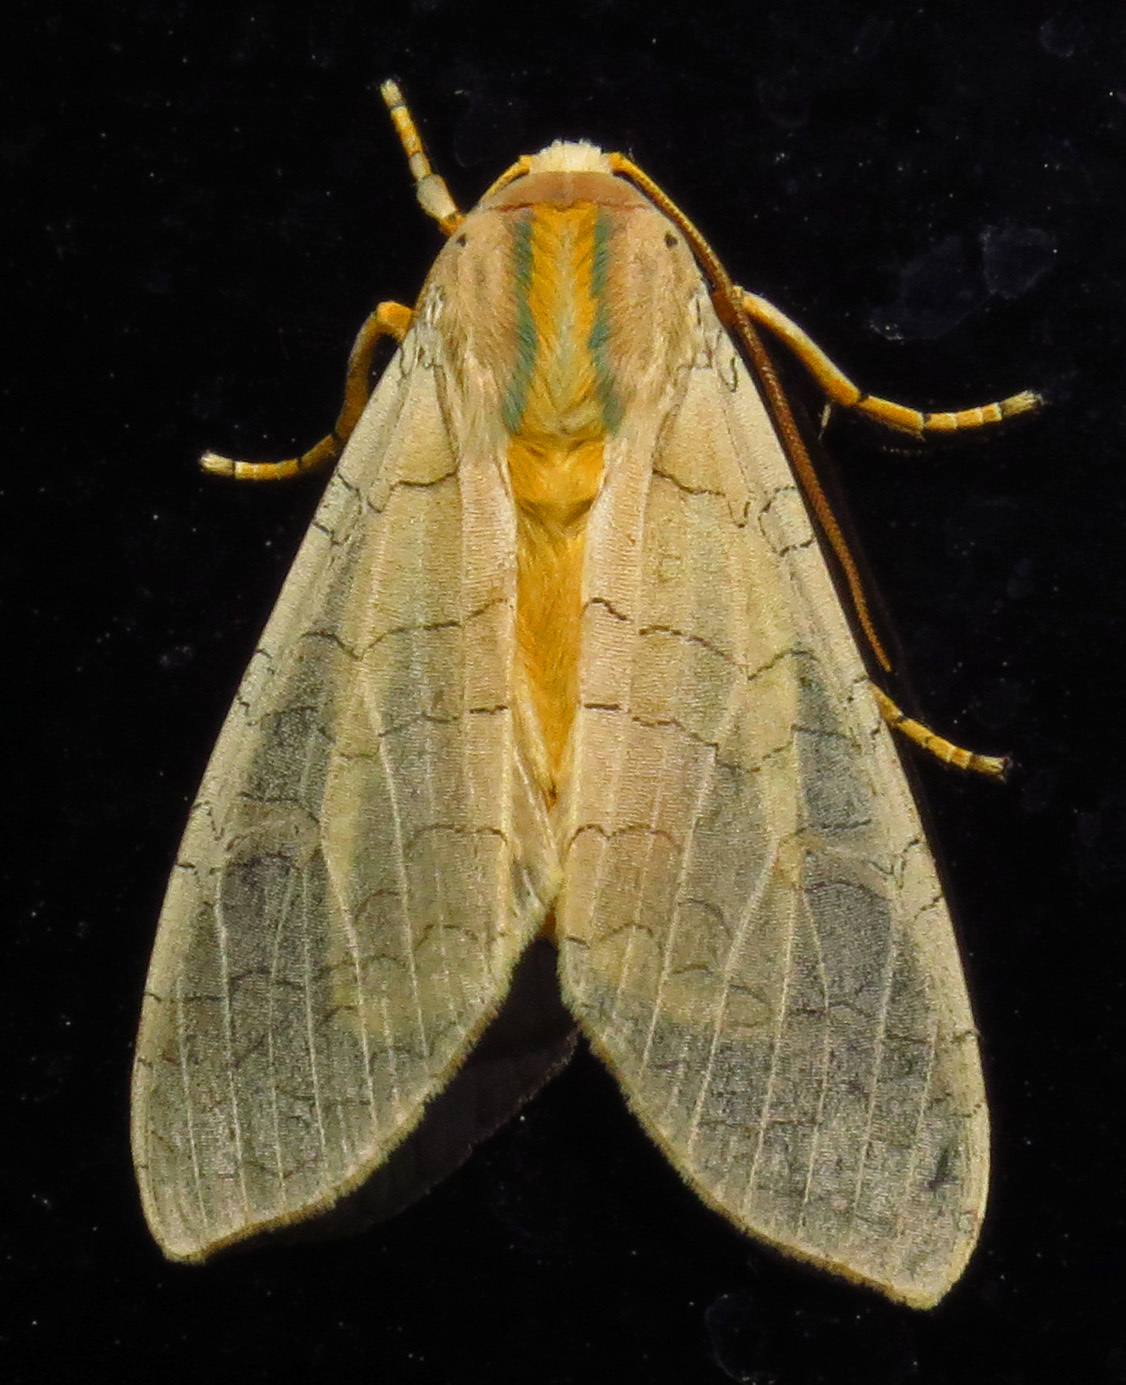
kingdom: Animalia
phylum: Arthropoda
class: Insecta
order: Lepidoptera
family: Erebidae
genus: Halysidota
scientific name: Halysidota
